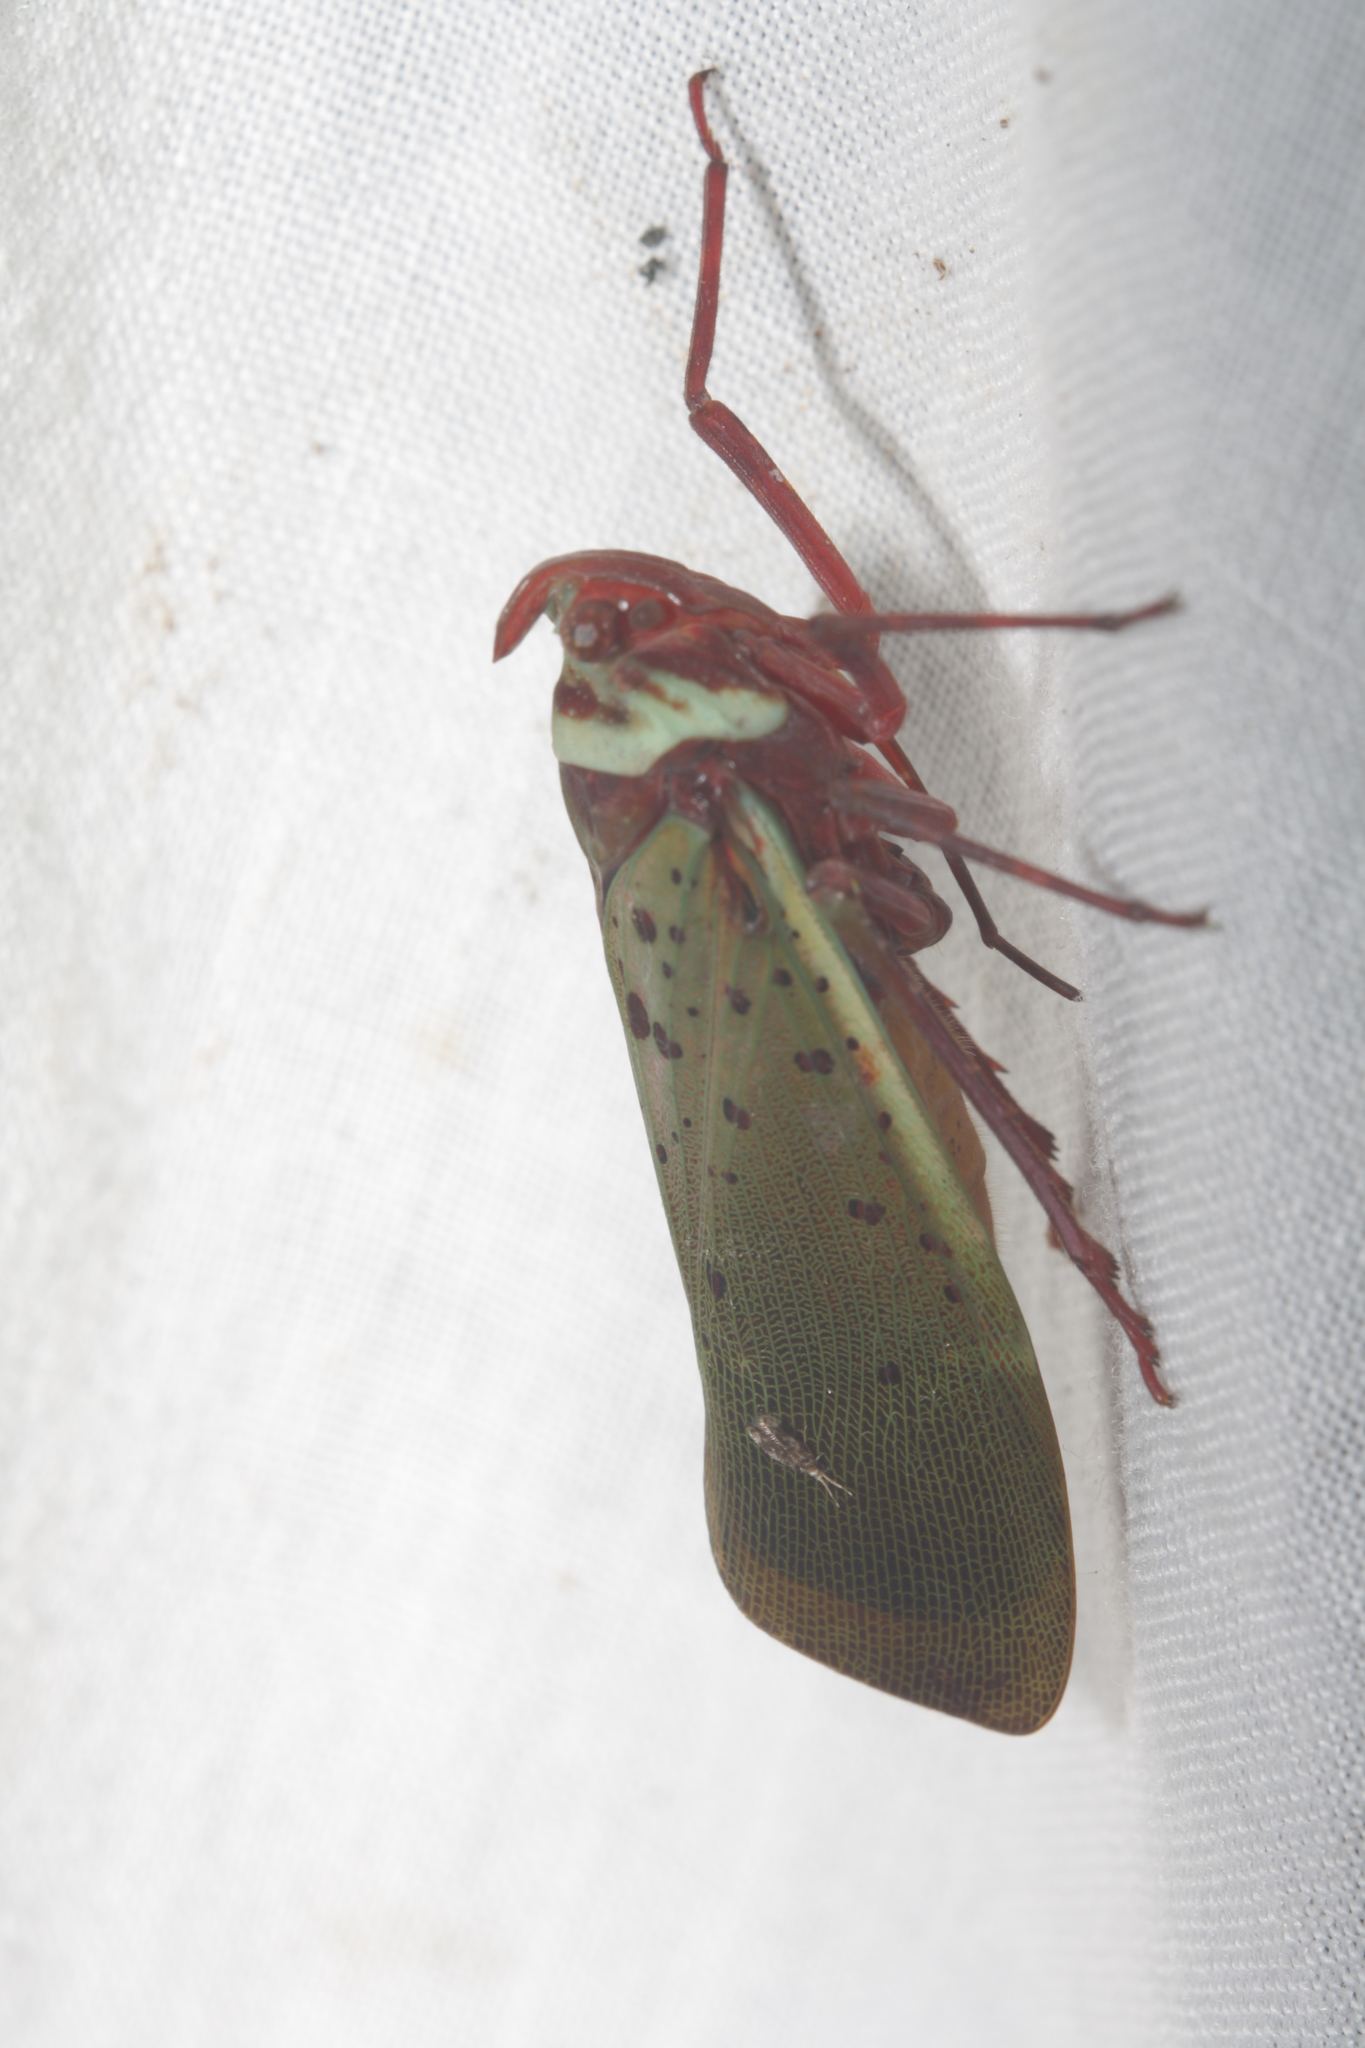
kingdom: Animalia
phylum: Arthropoda
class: Insecta
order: Hemiptera
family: Fulgoridae
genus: Copidocephala
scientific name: Copidocephala guttata
